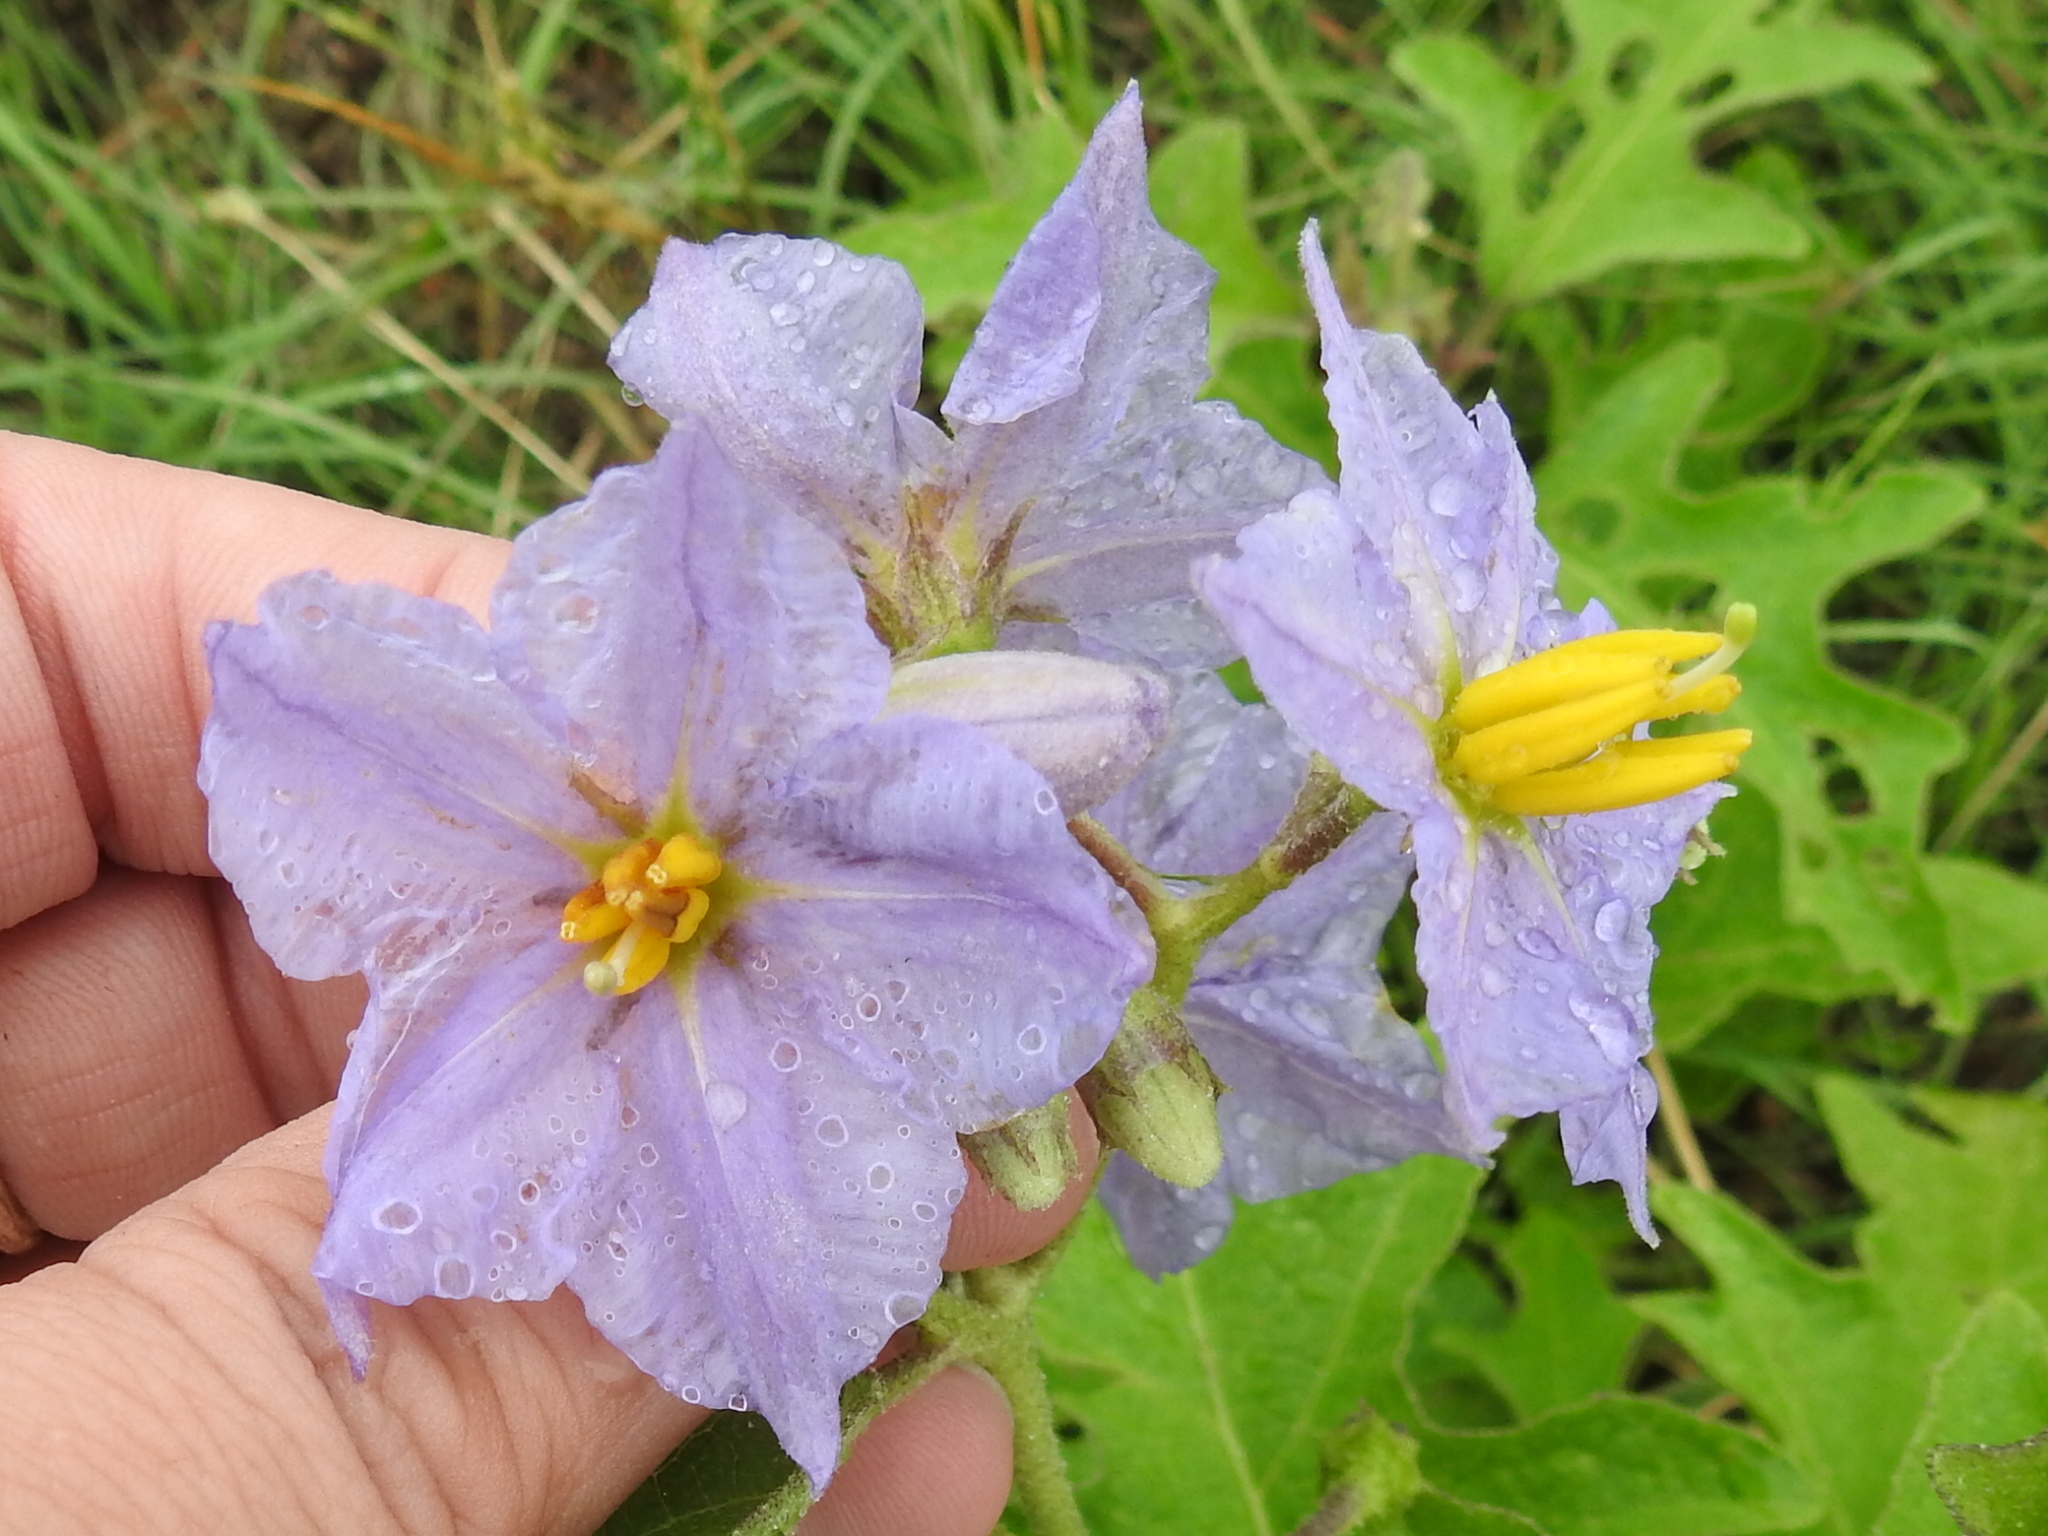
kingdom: Plantae
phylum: Tracheophyta
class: Magnoliopsida
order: Solanales
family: Solanaceae
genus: Solanum
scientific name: Solanum dimidiatum
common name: Carolina horse-nettle
